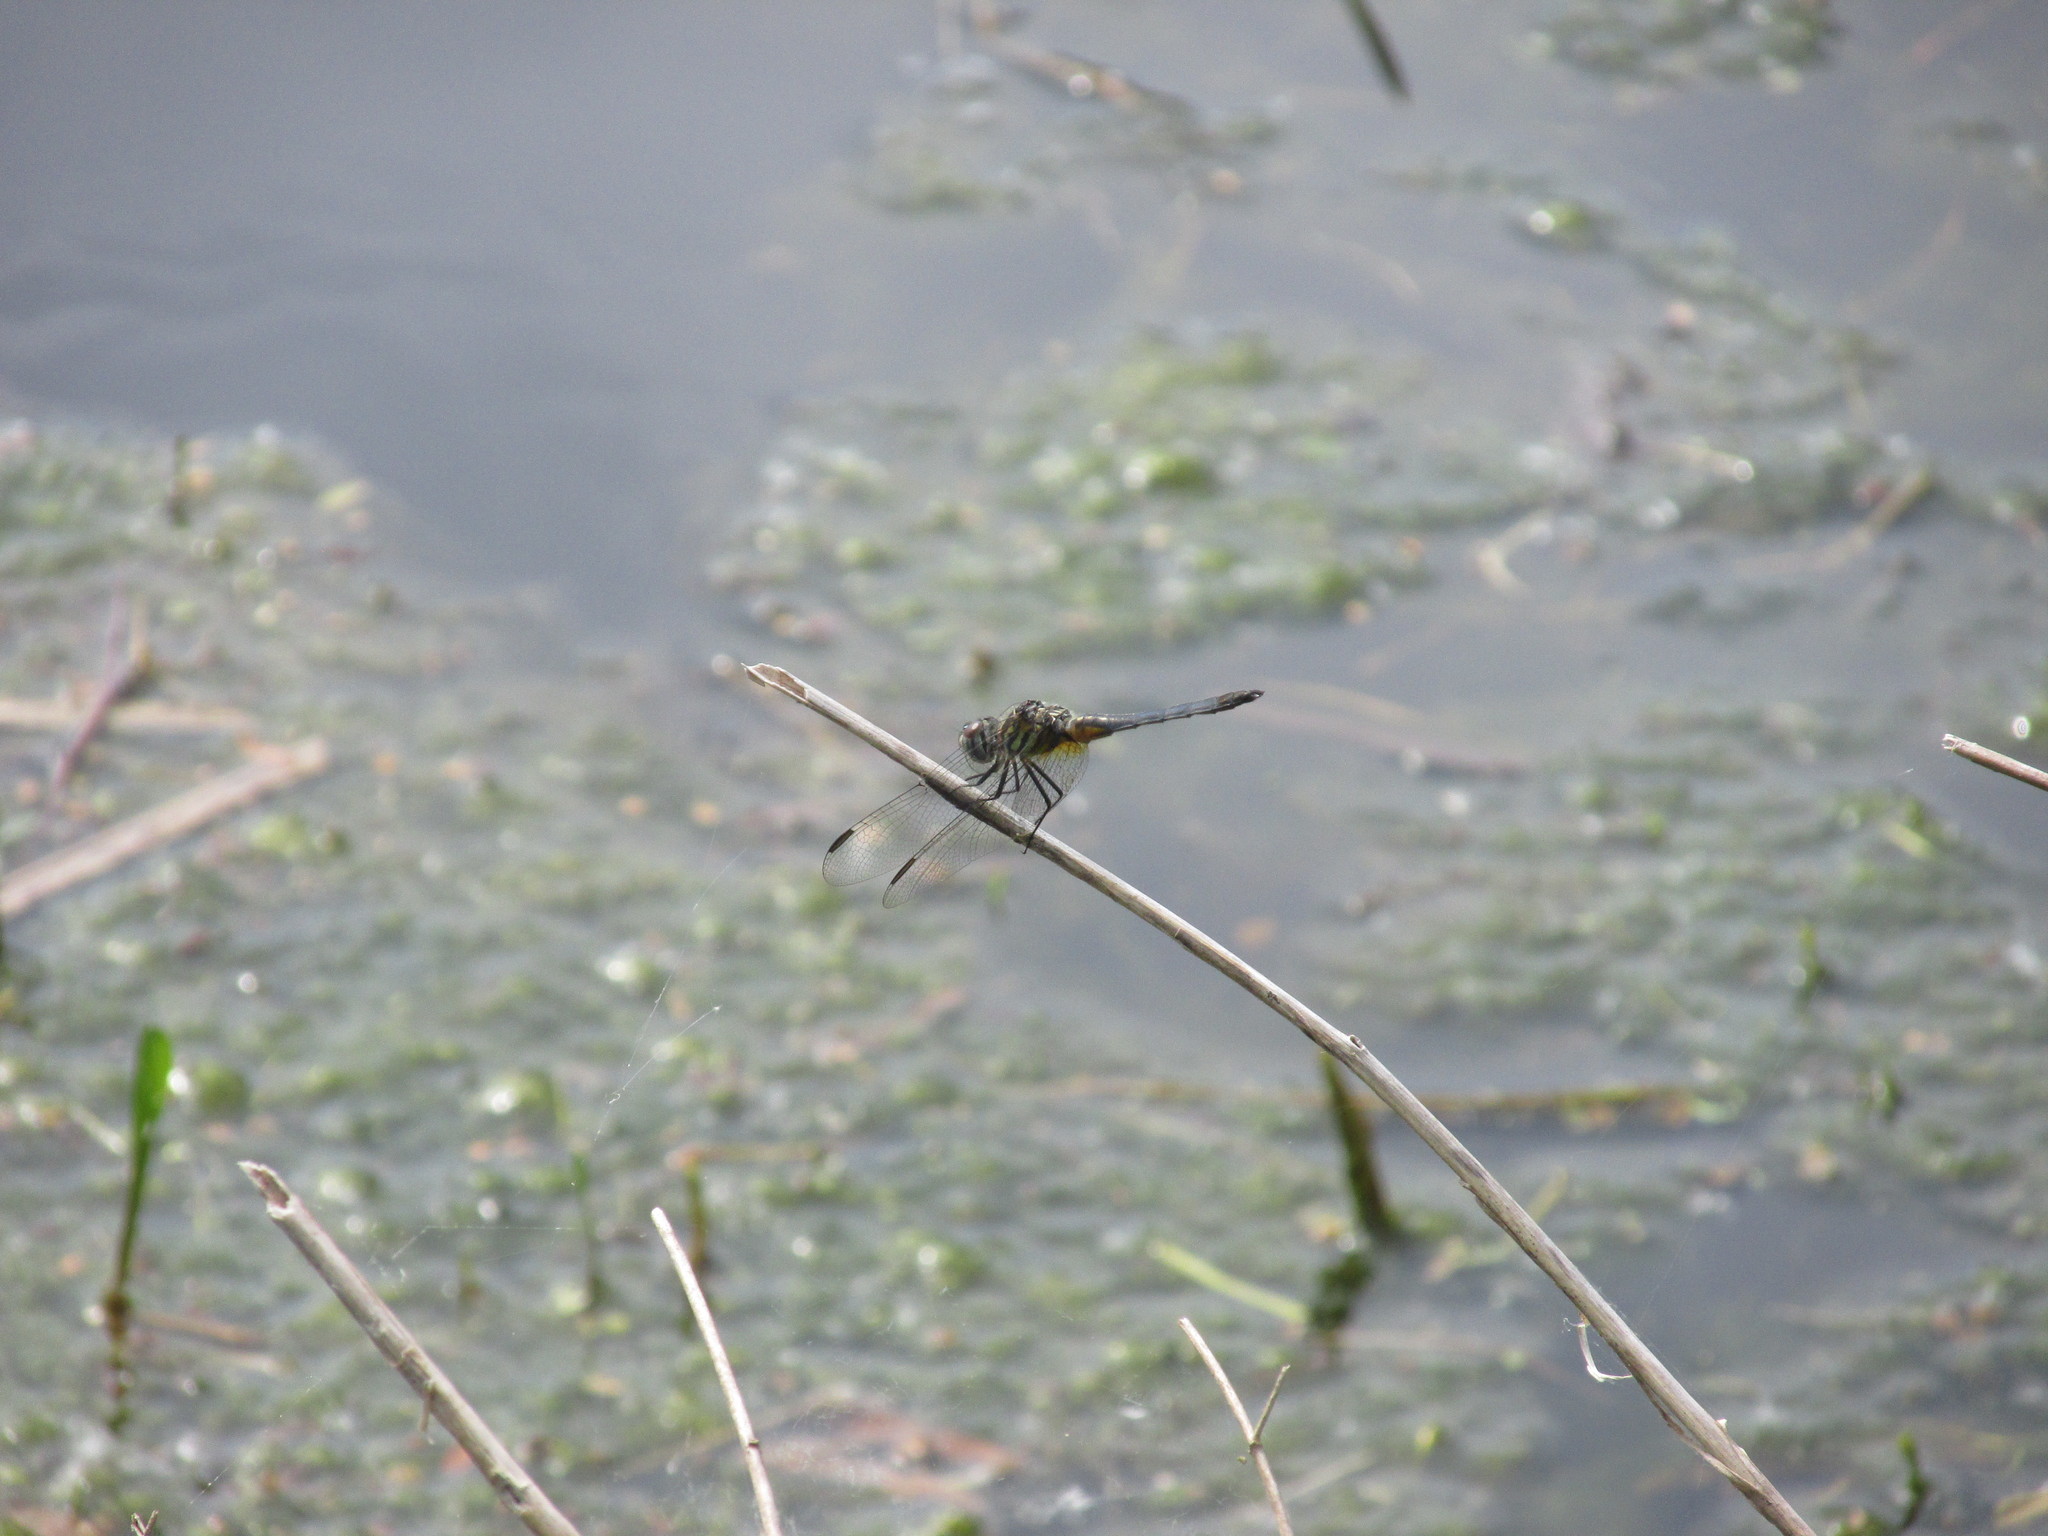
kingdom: Animalia
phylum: Arthropoda
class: Insecta
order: Odonata
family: Libellulidae
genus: Pachydiplax
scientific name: Pachydiplax longipennis
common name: Blue dasher
